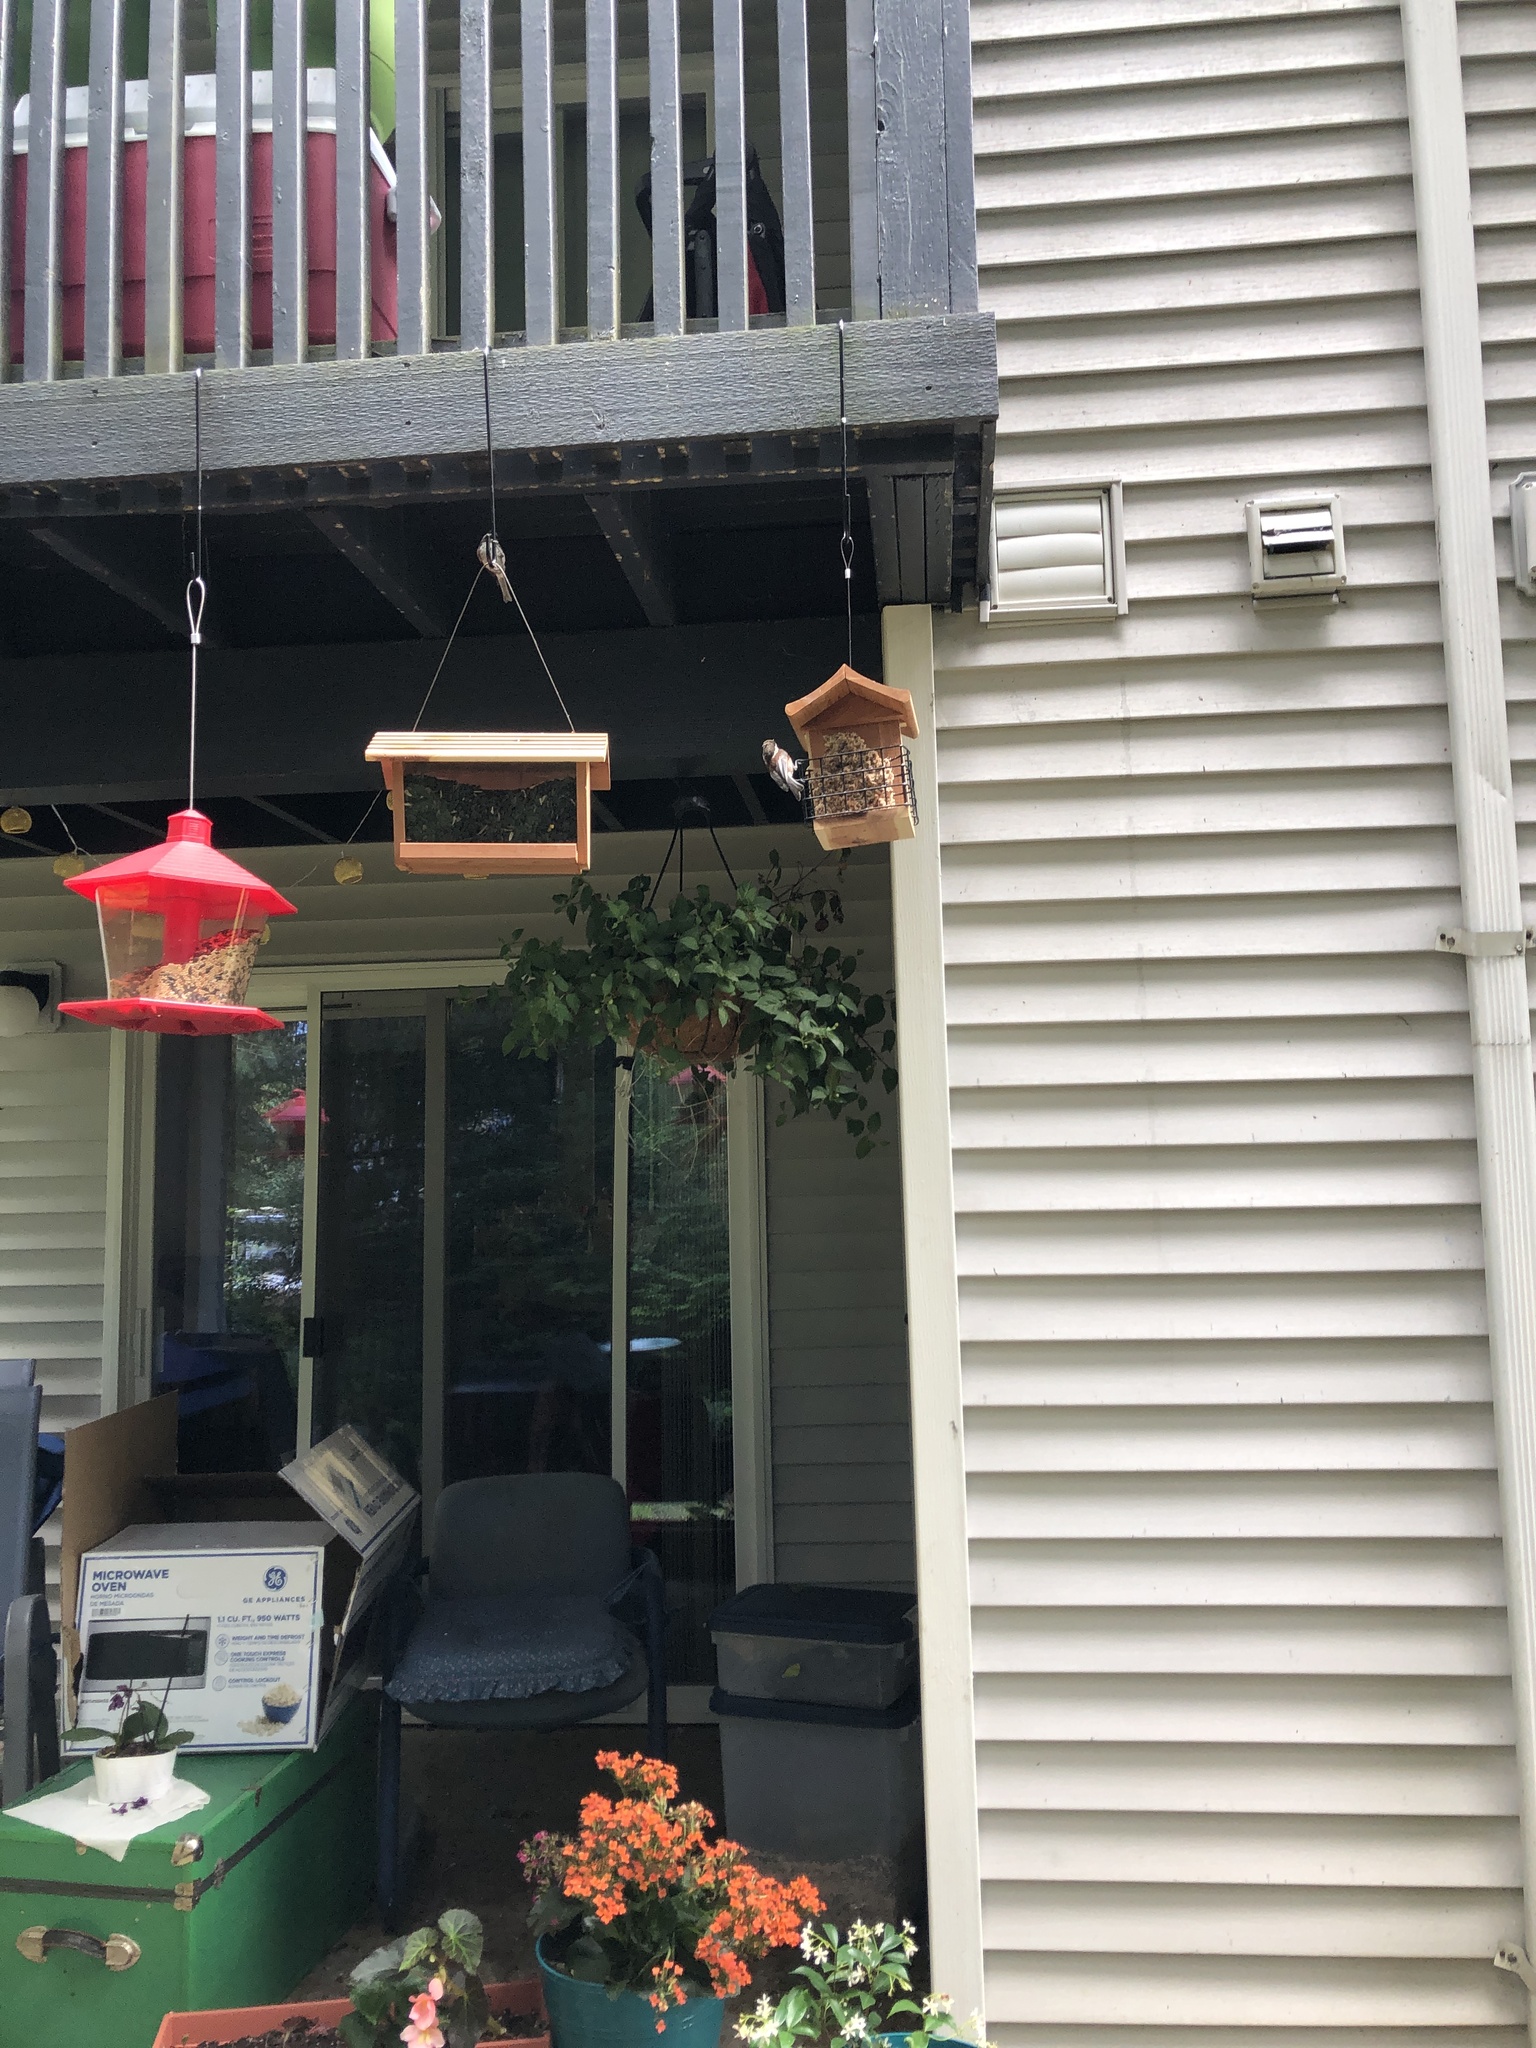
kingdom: Animalia
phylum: Chordata
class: Aves
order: Passeriformes
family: Paridae
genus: Poecile
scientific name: Poecile rufescens
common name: Chestnut-backed chickadee
